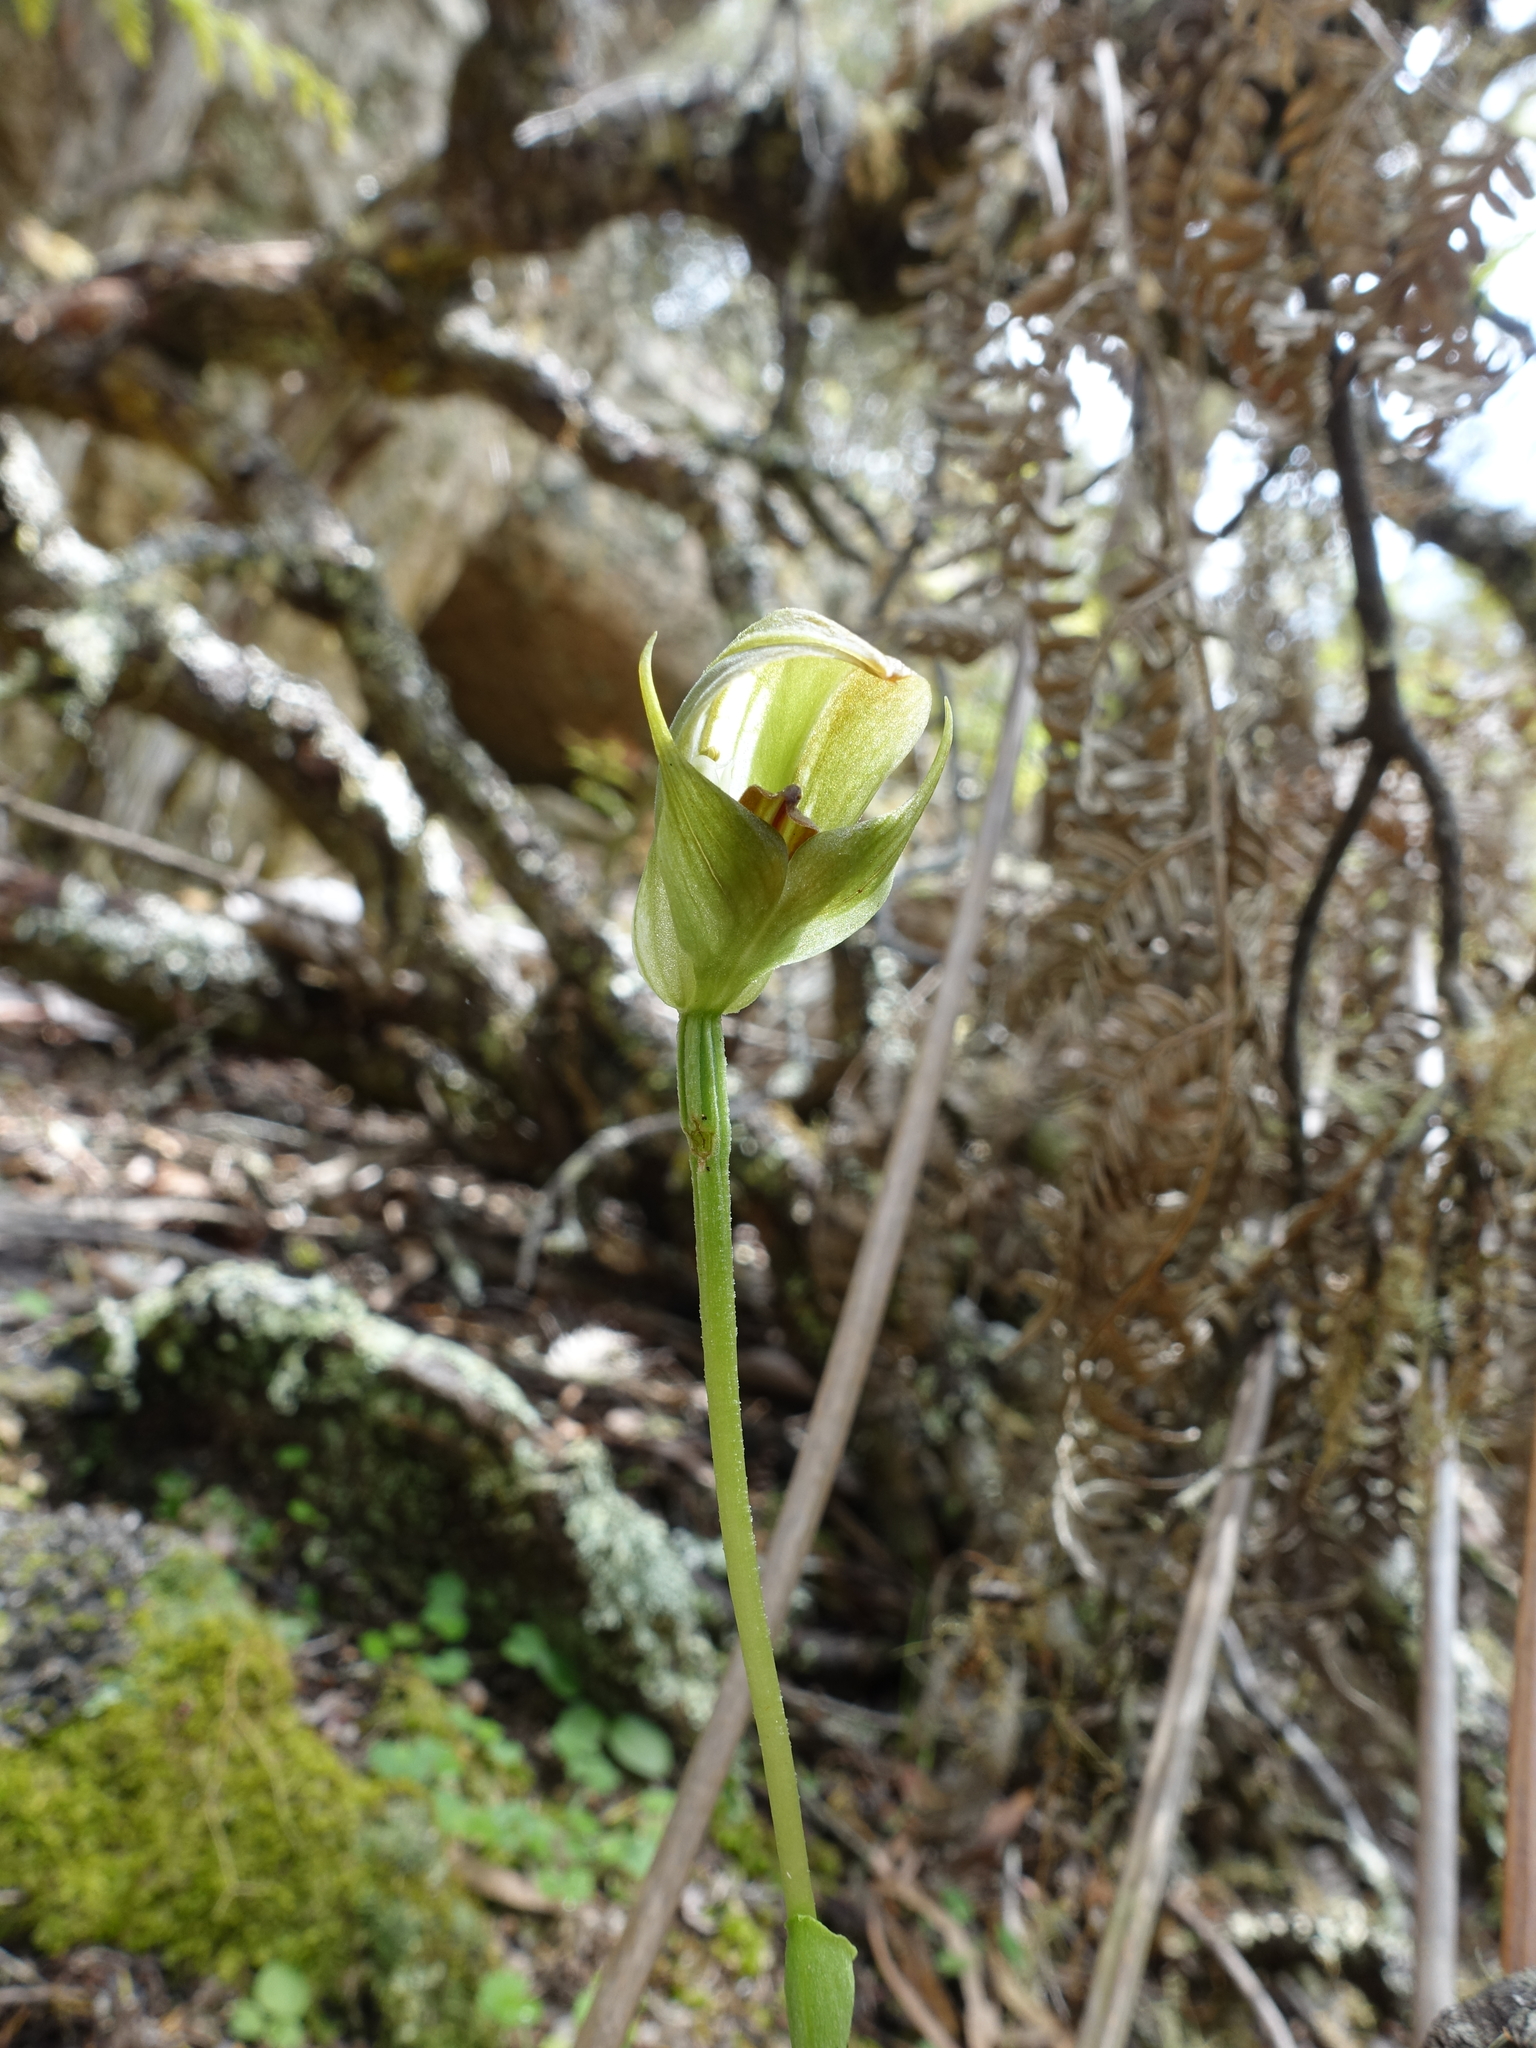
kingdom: Plantae
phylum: Tracheophyta
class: Liliopsida
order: Asparagales
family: Orchidaceae
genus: Pterostylis
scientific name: Pterostylis curta
